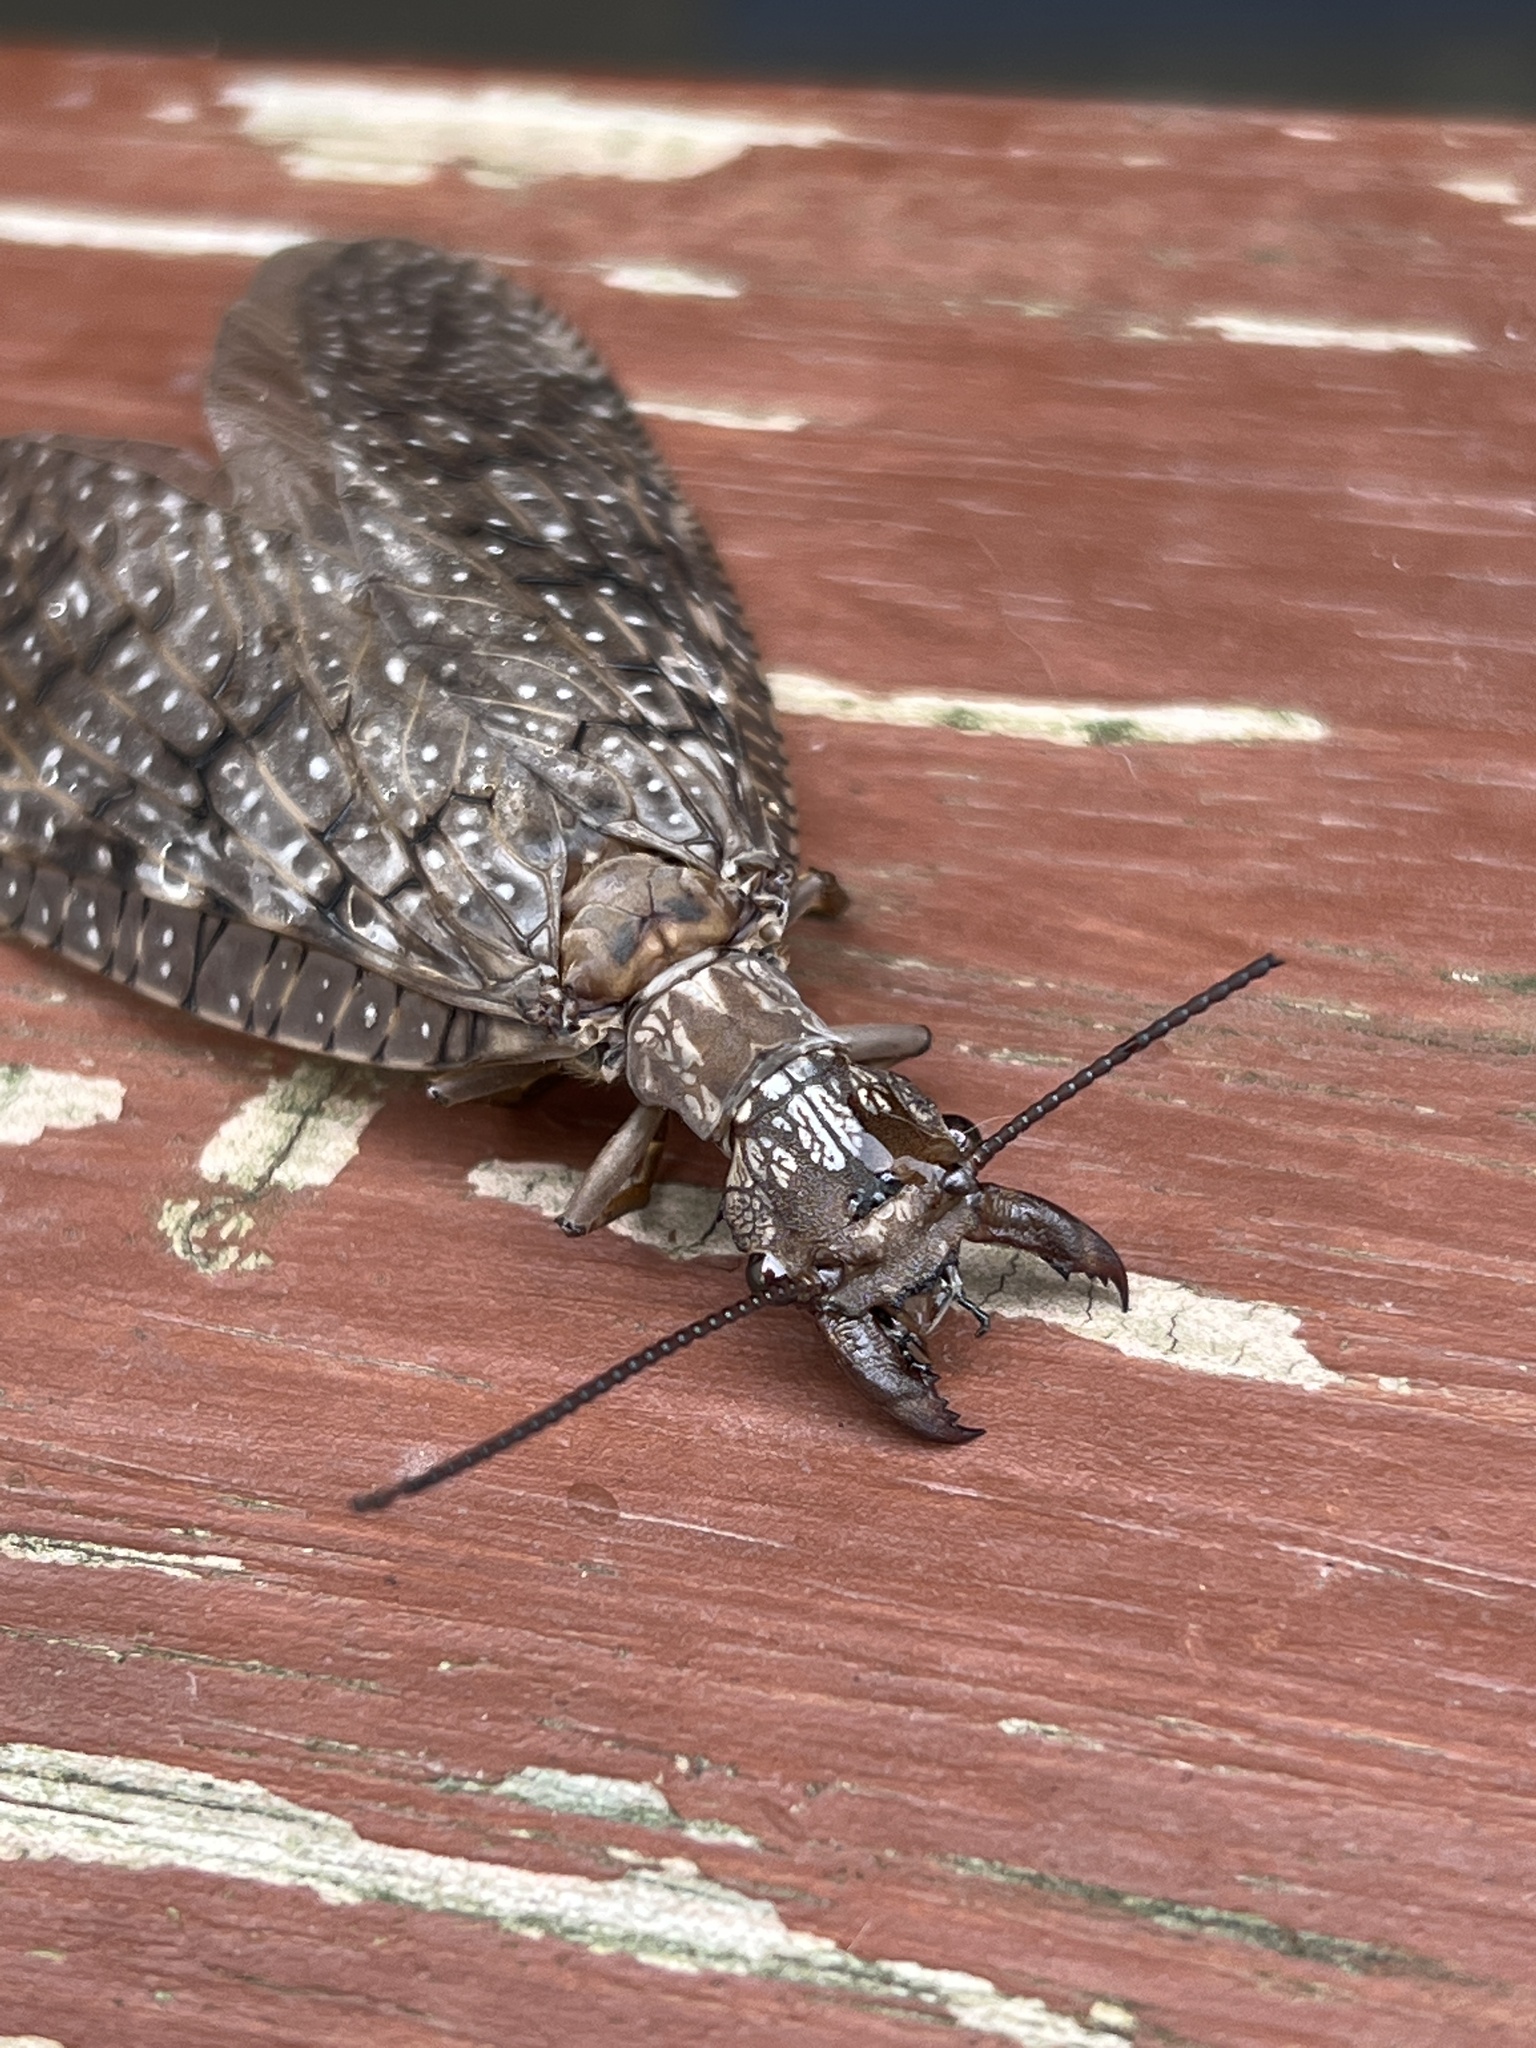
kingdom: Animalia
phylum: Arthropoda
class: Insecta
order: Megaloptera
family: Corydalidae
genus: Corydalus
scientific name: Corydalus cornutus
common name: Dobsonfly
